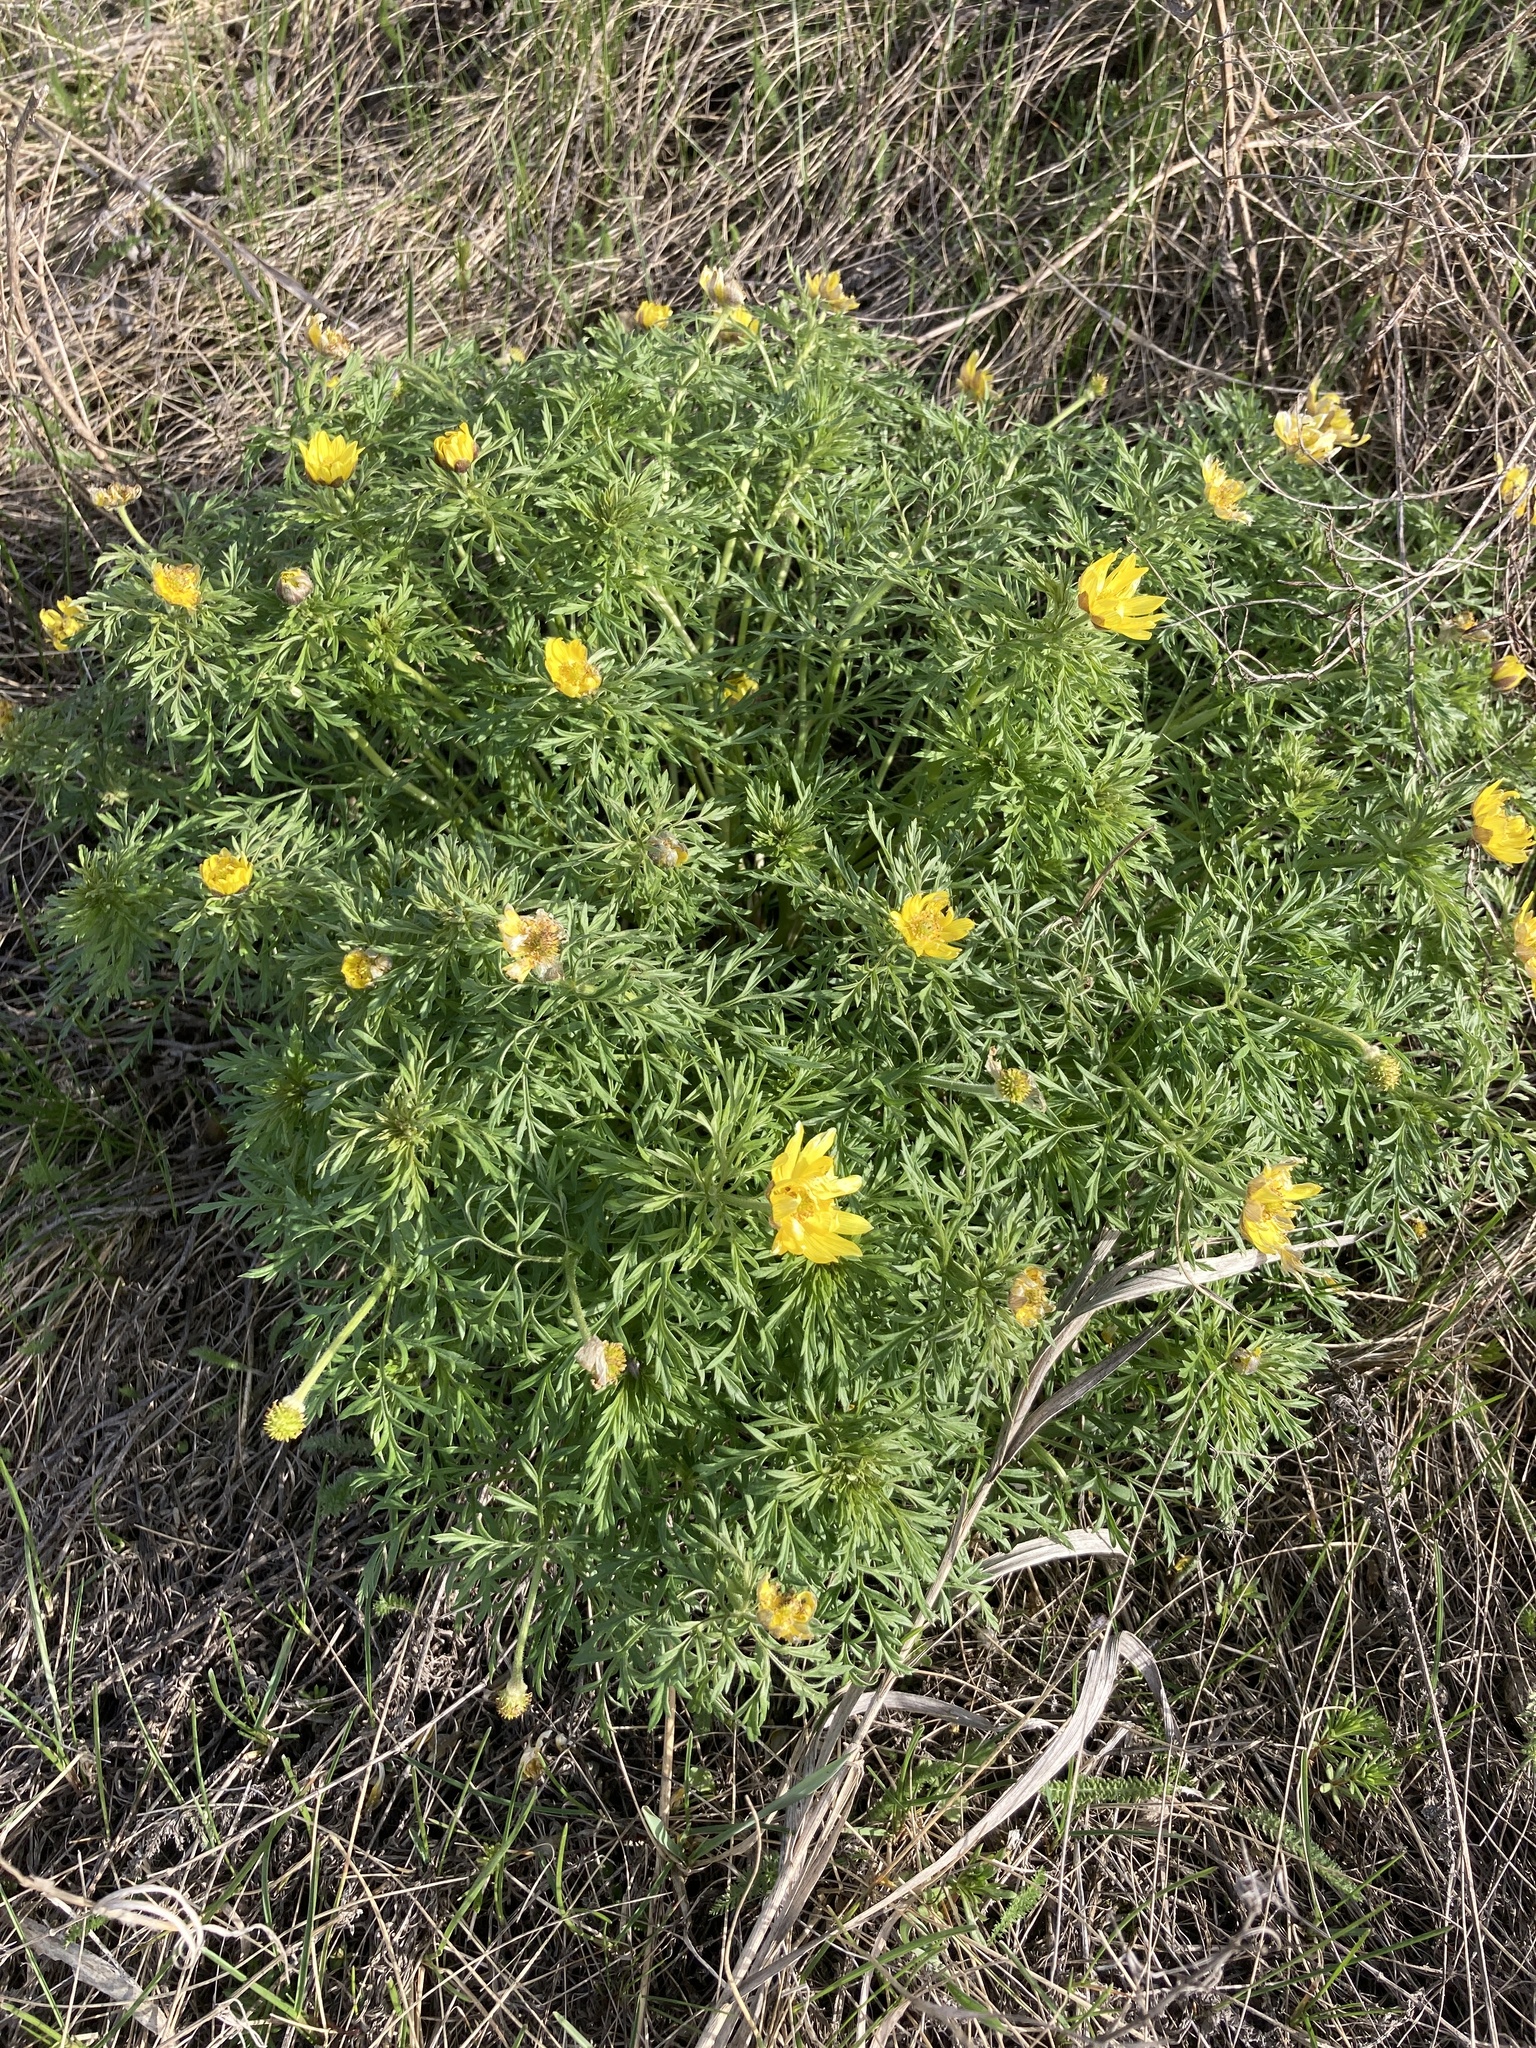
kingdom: Plantae
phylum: Tracheophyta
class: Magnoliopsida
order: Ranunculales
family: Ranunculaceae
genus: Adonis
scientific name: Adonis volgensis
